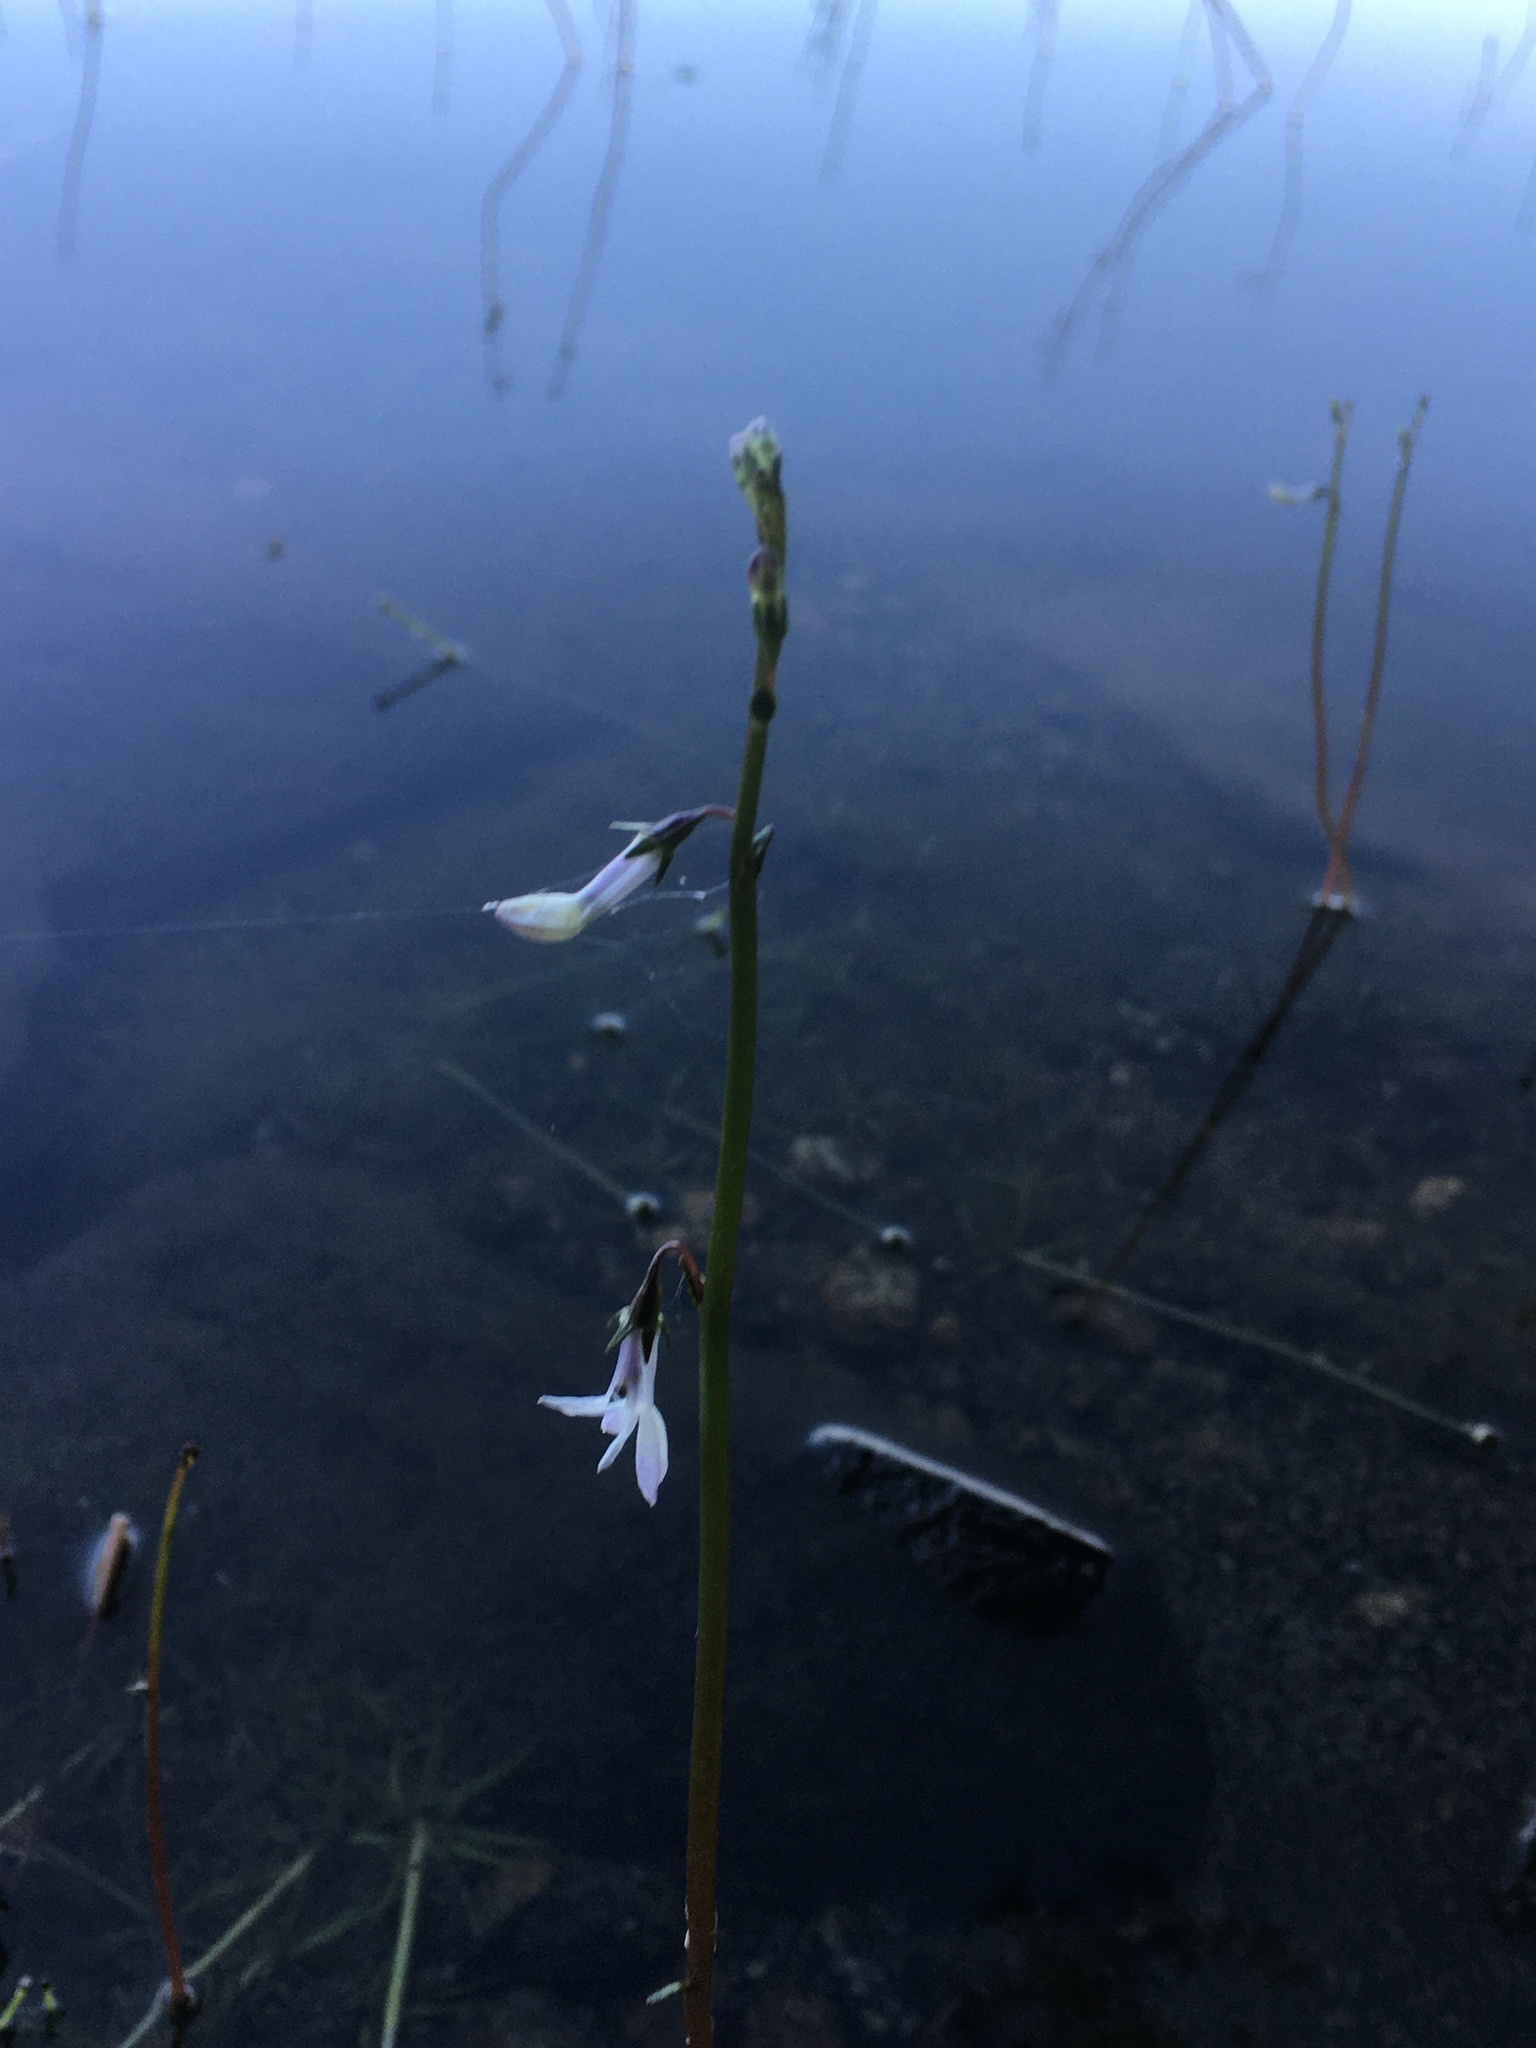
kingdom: Plantae
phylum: Tracheophyta
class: Magnoliopsida
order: Asterales
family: Campanulaceae
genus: Lobelia
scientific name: Lobelia dortmanna
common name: Water lobelia
